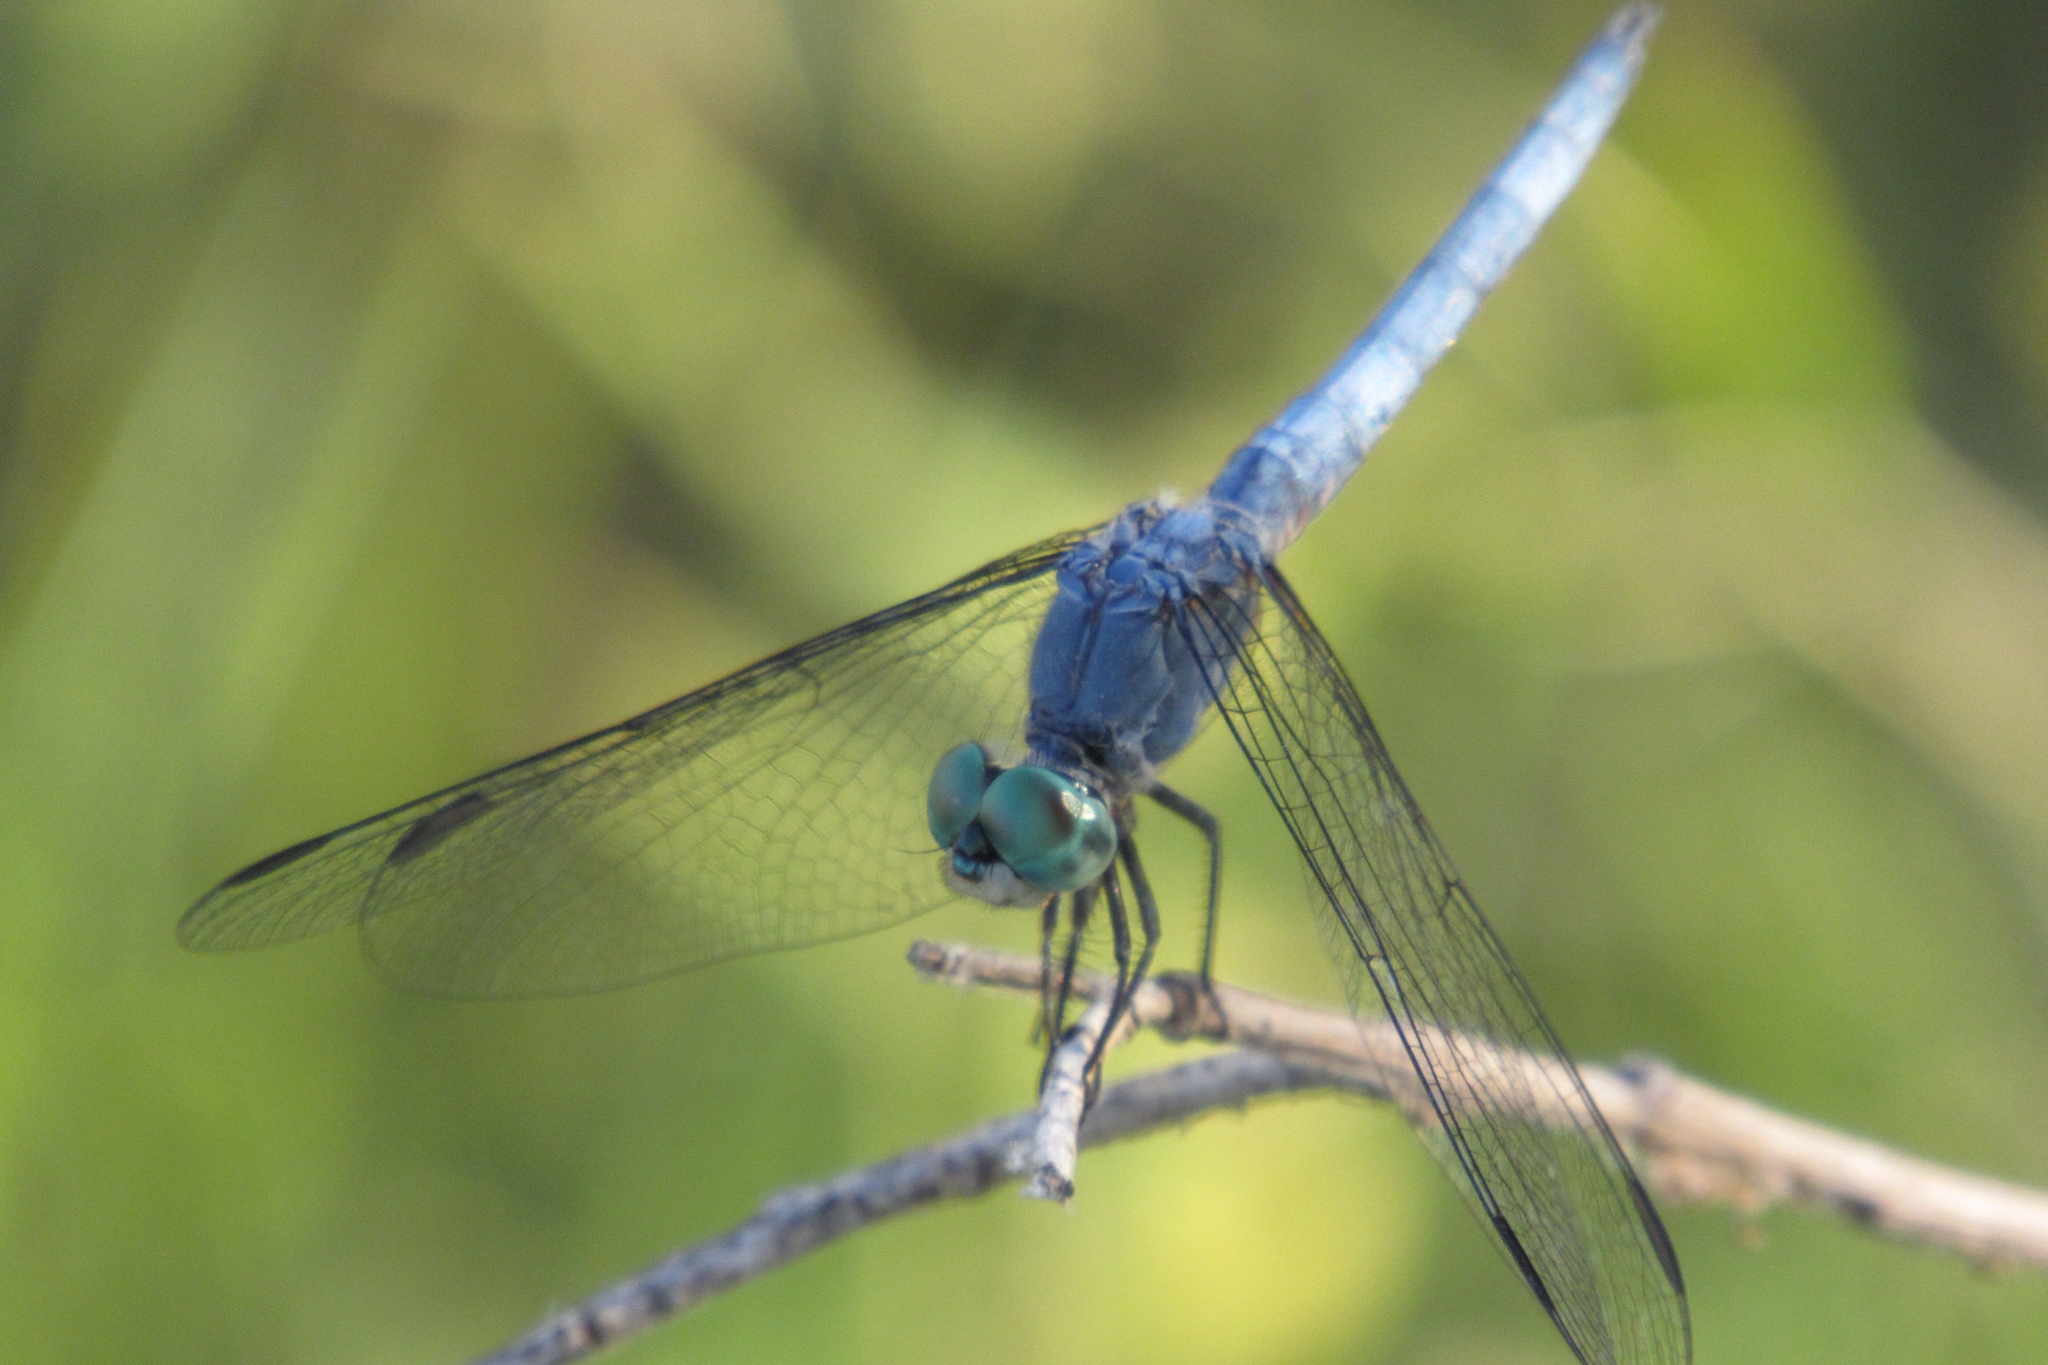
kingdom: Animalia
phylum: Arthropoda
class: Insecta
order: Odonata
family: Libellulidae
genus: Pachydiplax
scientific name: Pachydiplax longipennis
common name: Blue dasher
